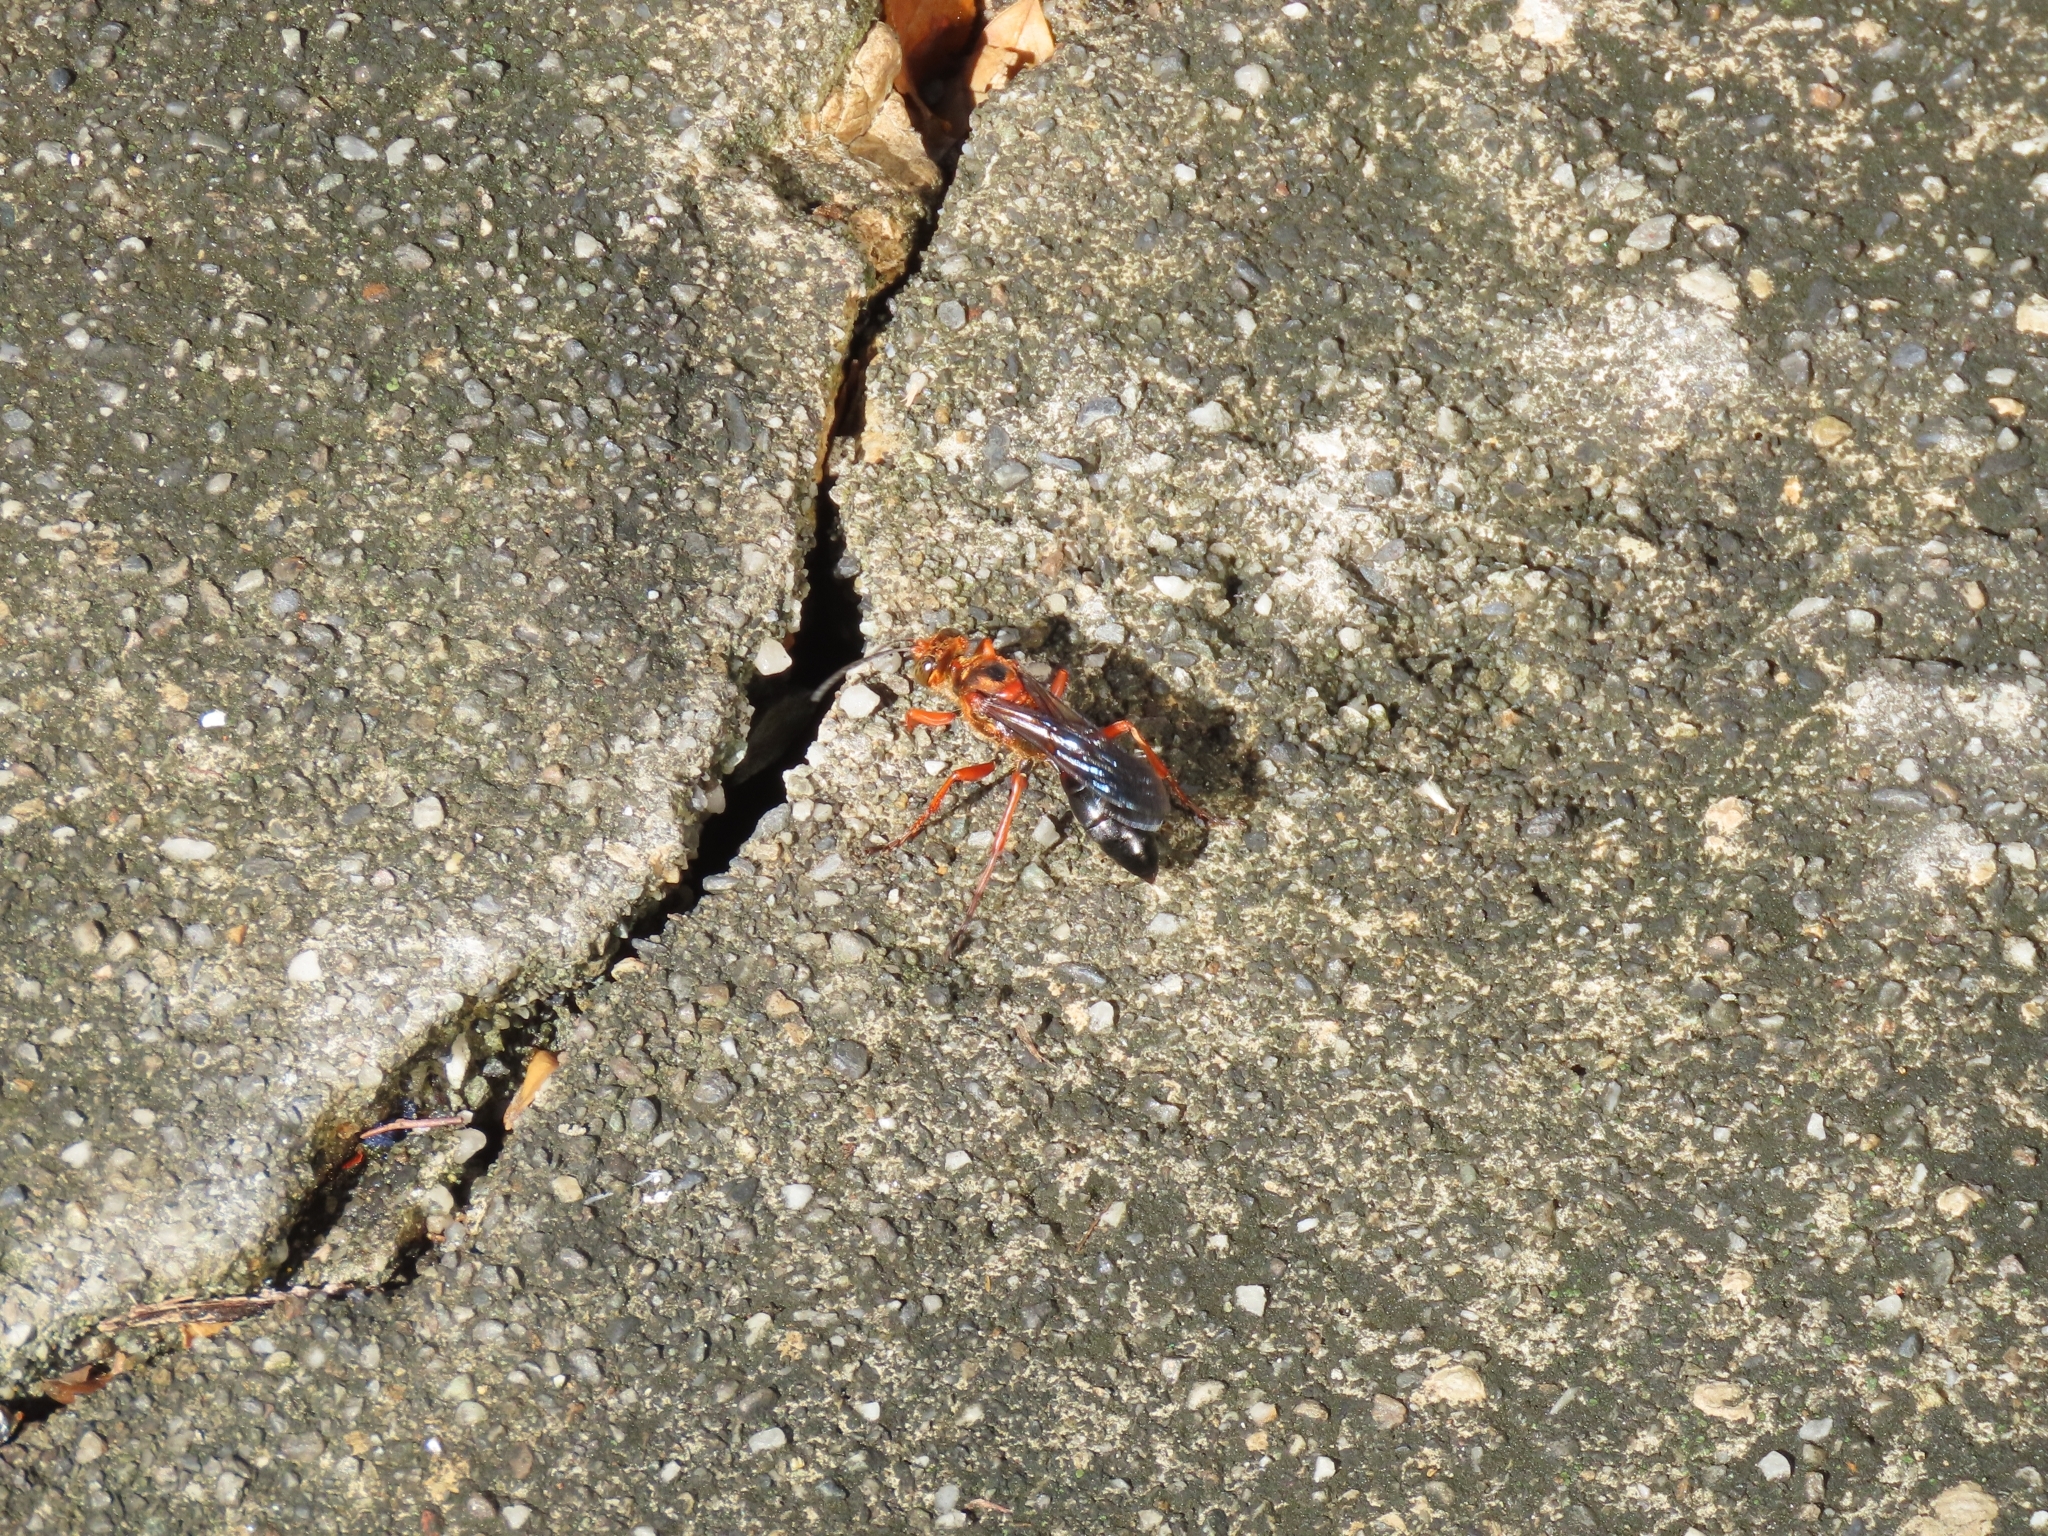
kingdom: Animalia
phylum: Arthropoda
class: Insecta
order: Hymenoptera
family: Sphecidae
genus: Sphex
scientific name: Sphex sericeus
